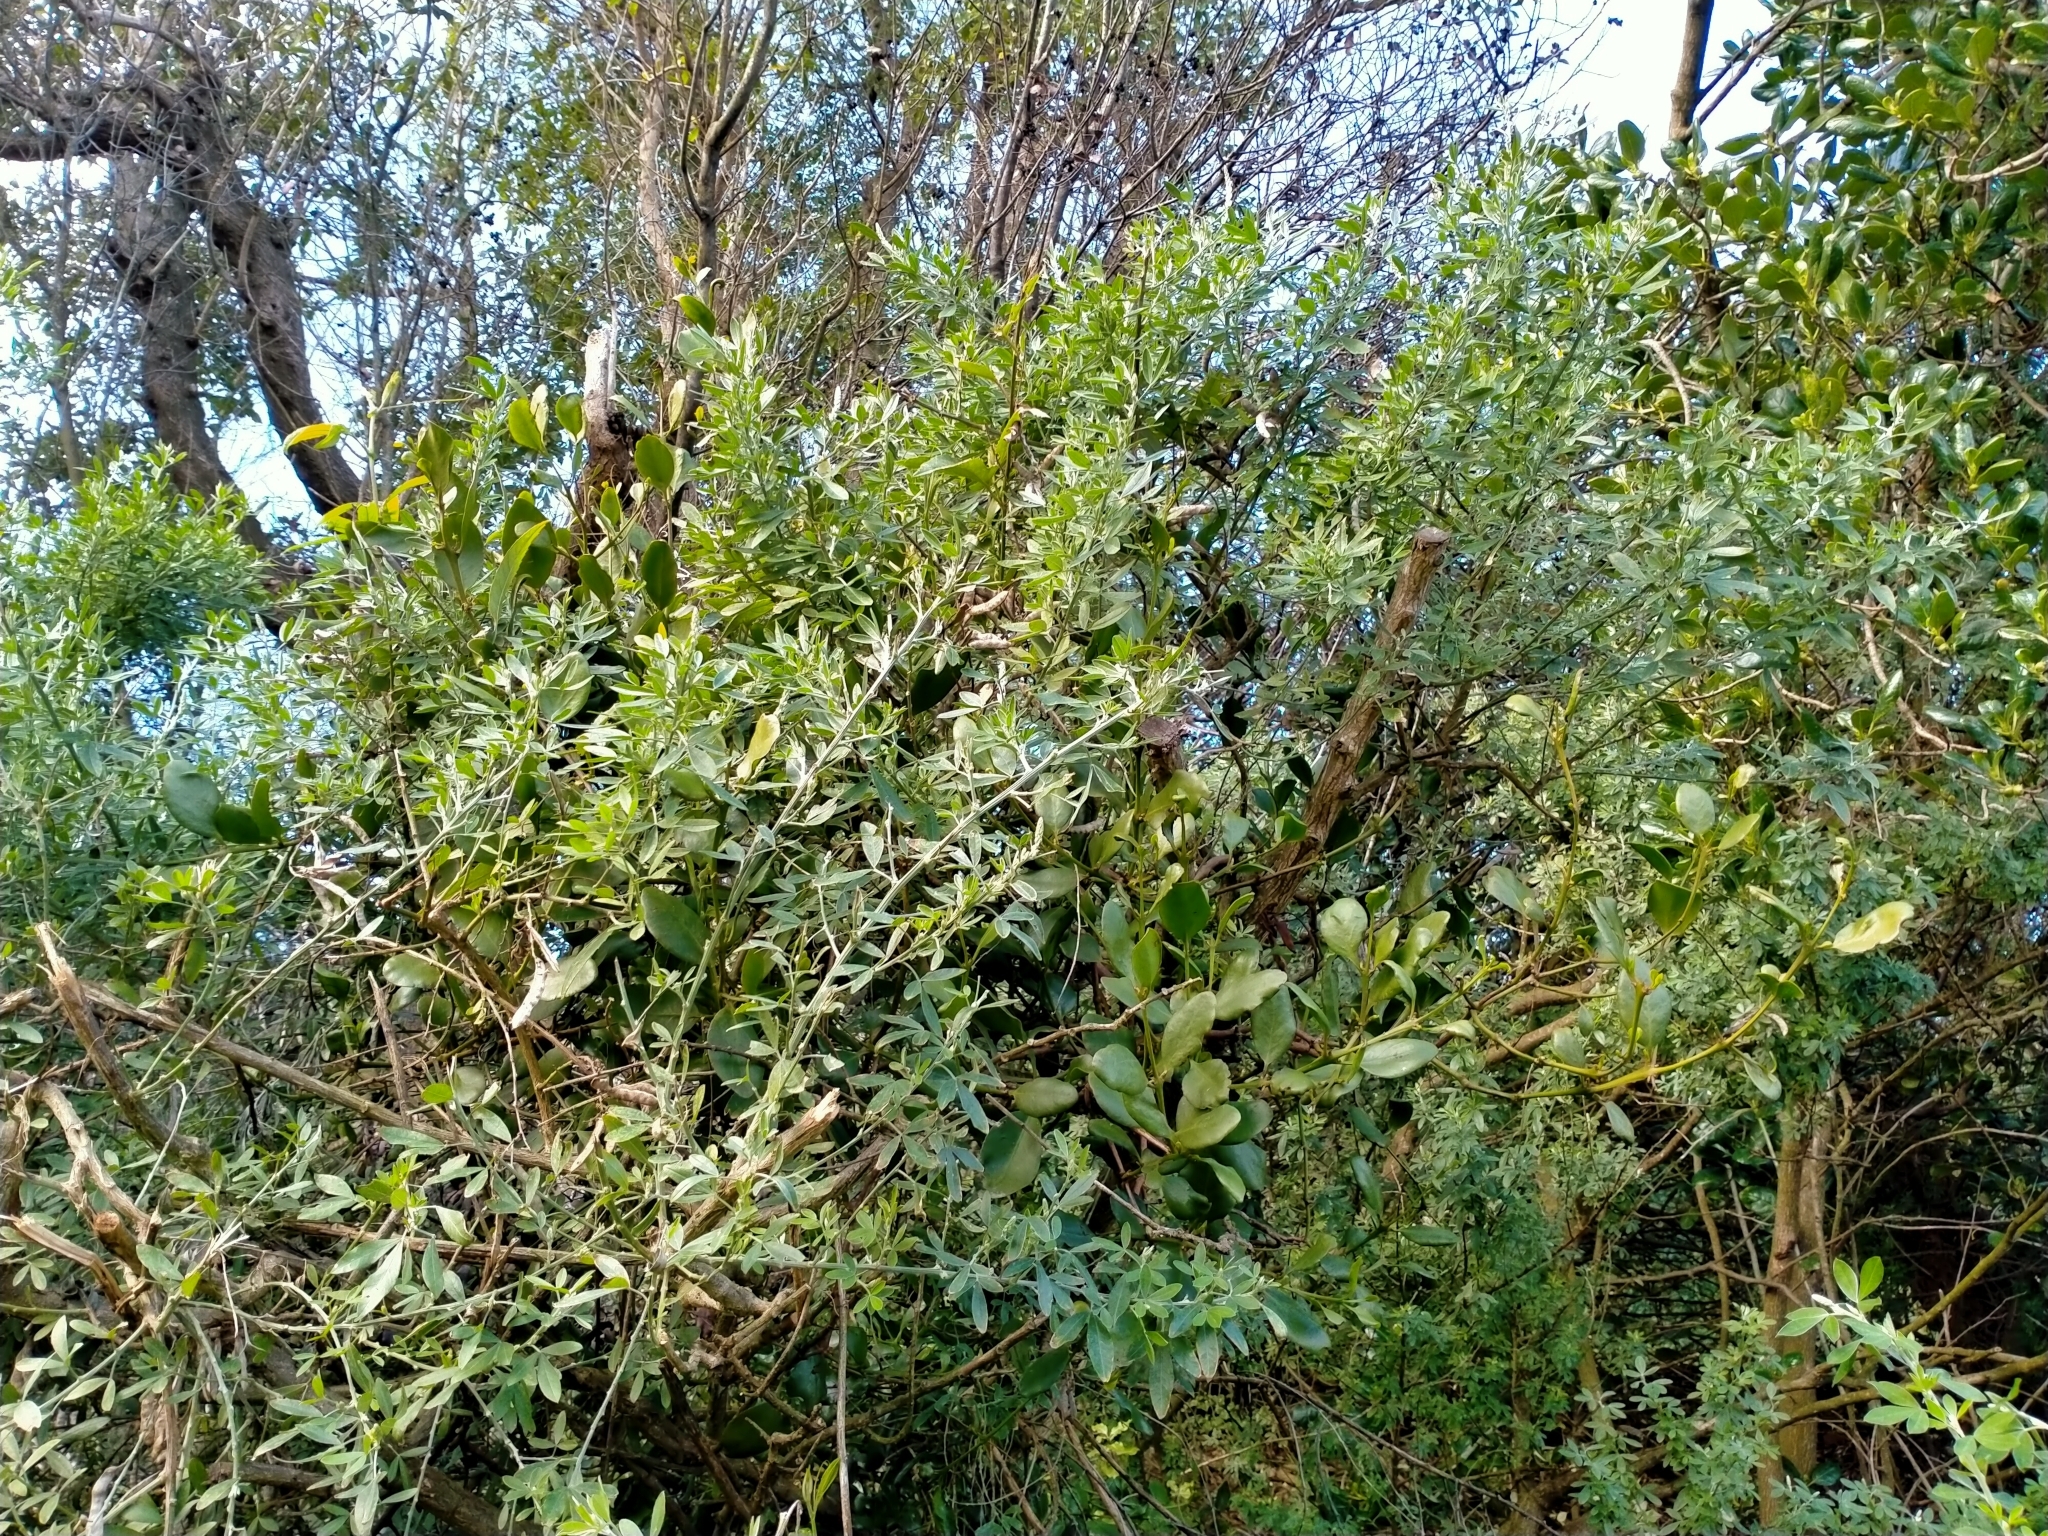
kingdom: Plantae
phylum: Tracheophyta
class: Magnoliopsida
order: Santalales
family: Loranthaceae
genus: Ileostylus
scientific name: Ileostylus micranthus
